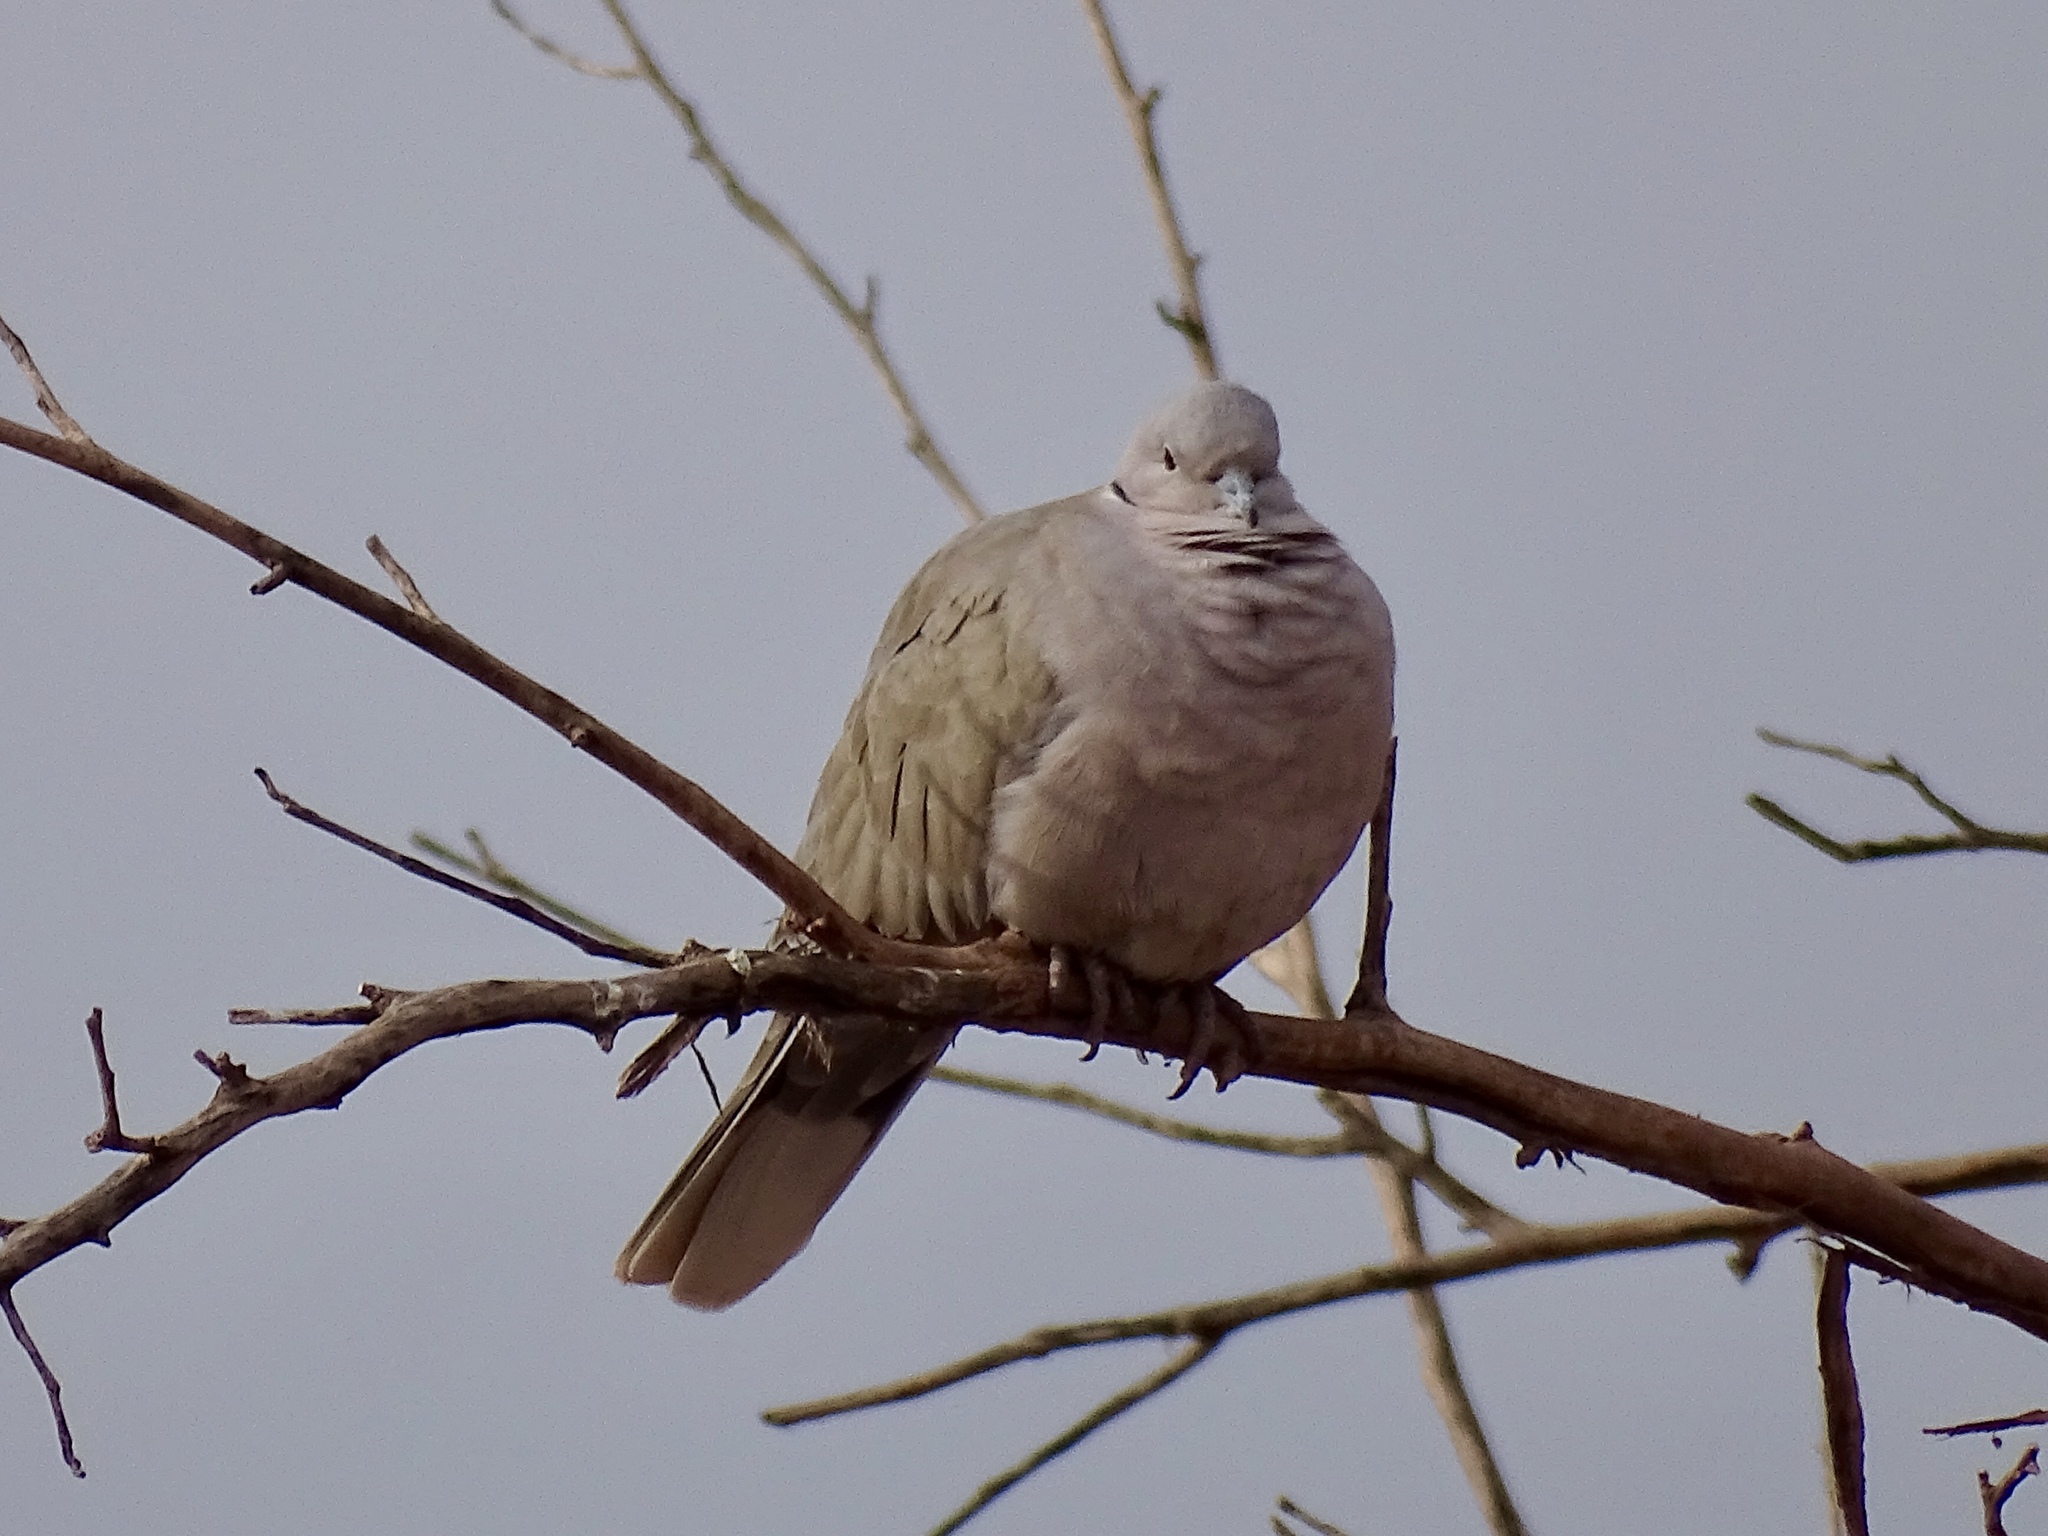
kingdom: Animalia
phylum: Chordata
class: Aves
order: Columbiformes
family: Columbidae
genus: Streptopelia
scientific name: Streptopelia decaocto
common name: Eurasian collared dove
